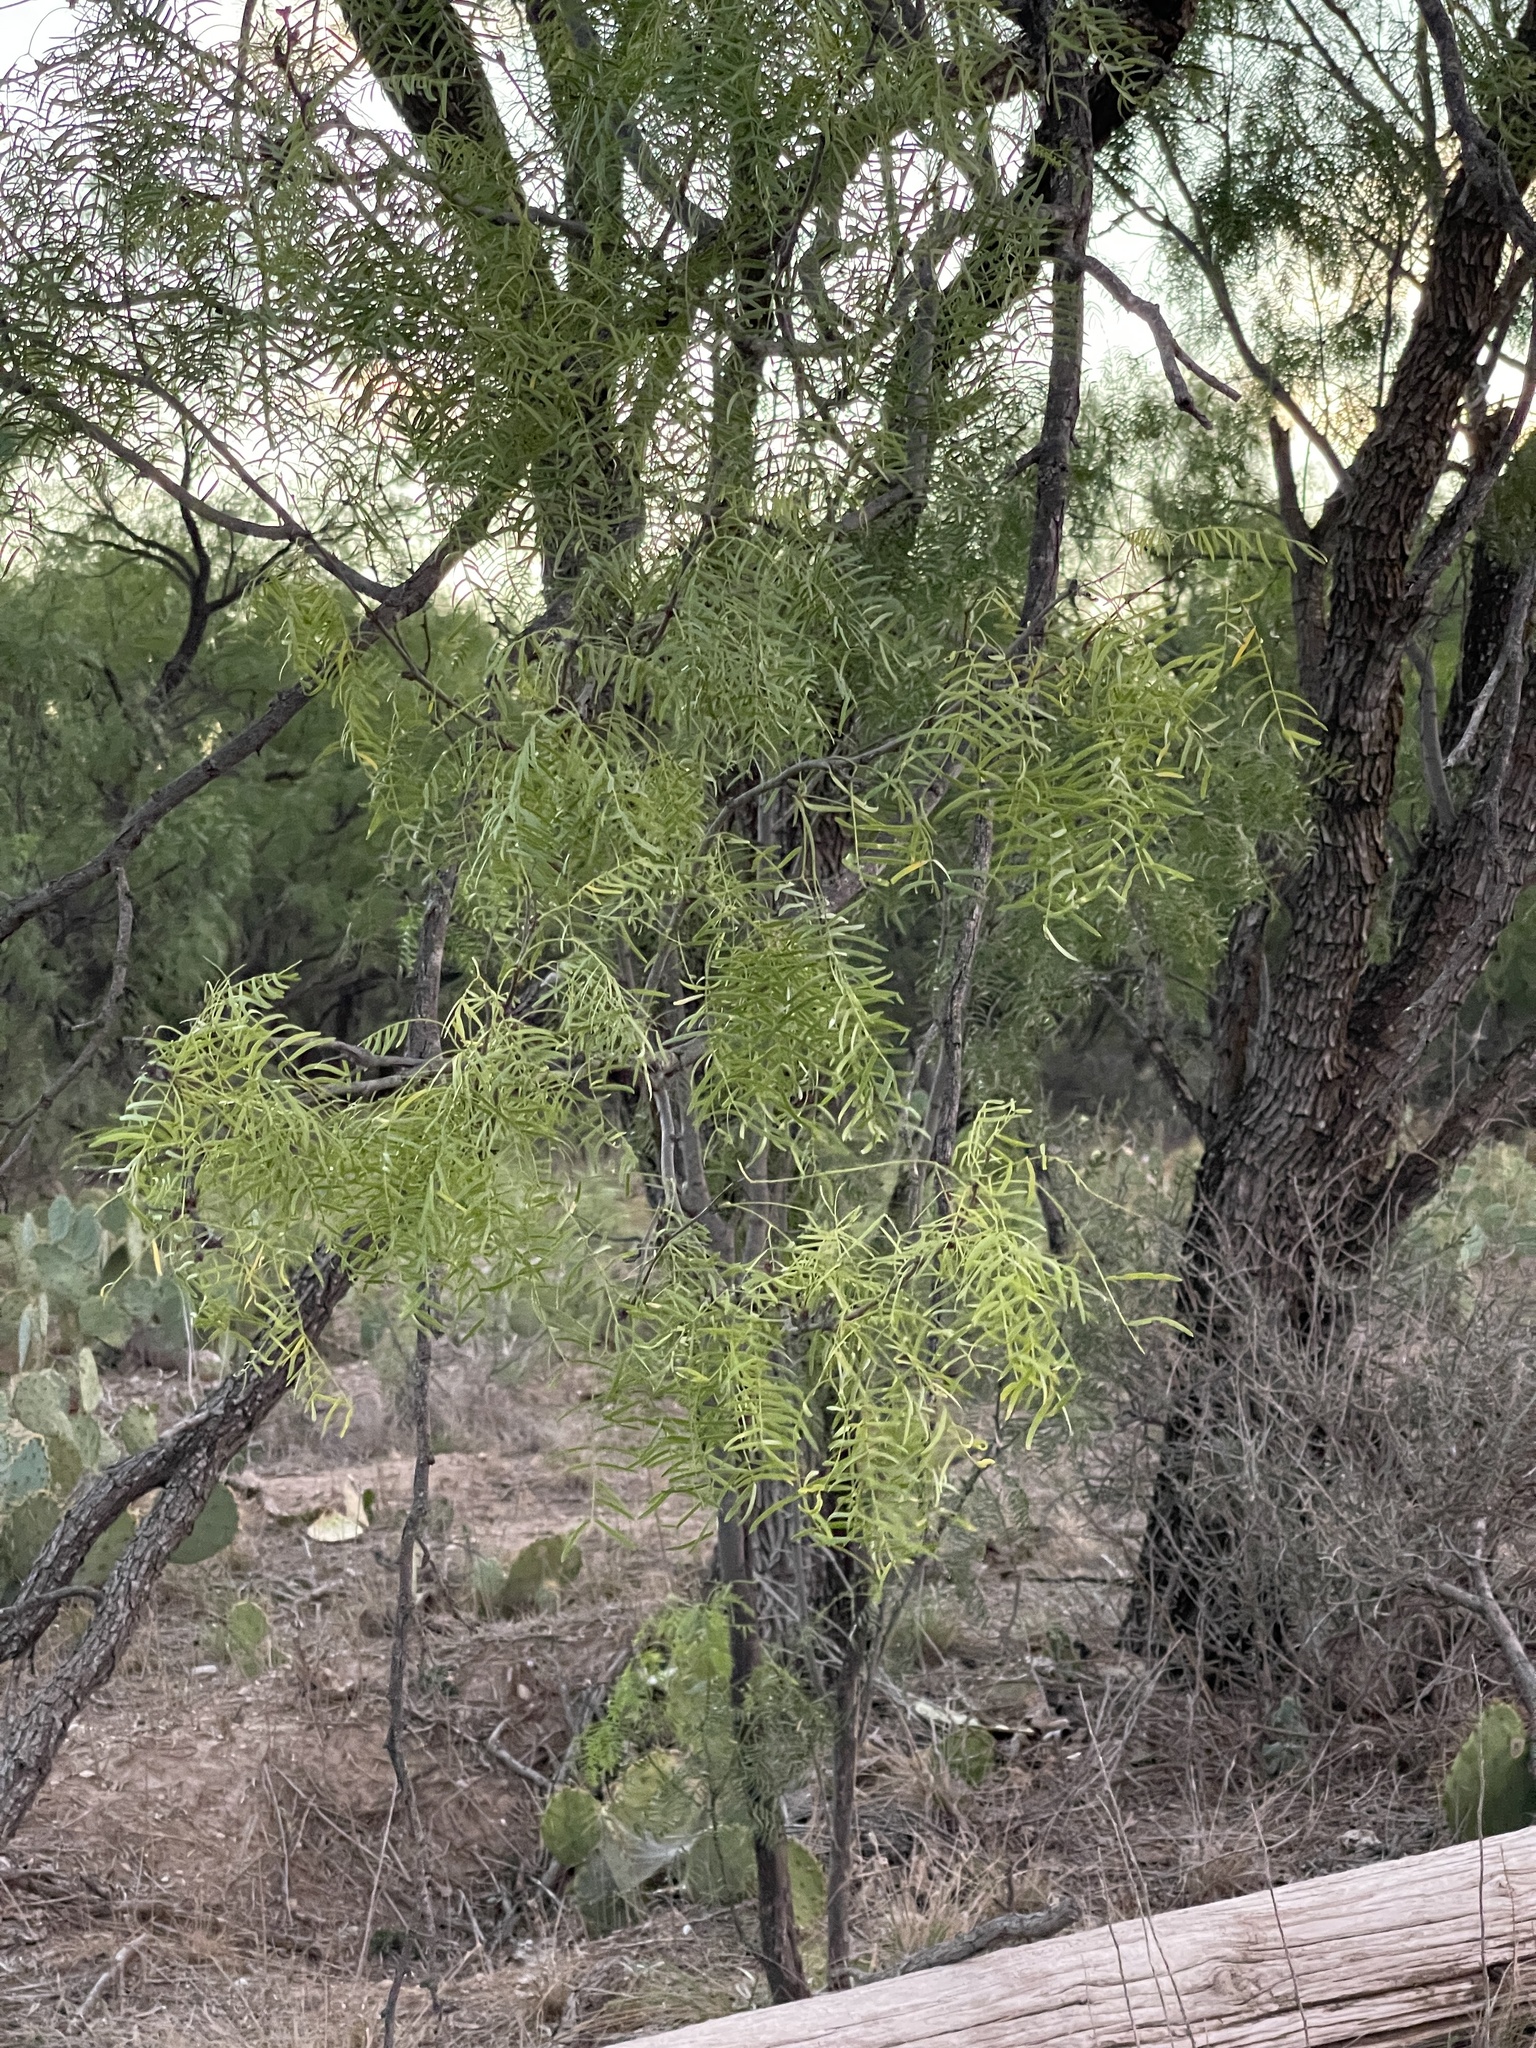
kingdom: Plantae
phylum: Tracheophyta
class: Magnoliopsida
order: Fabales
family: Fabaceae
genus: Prosopis
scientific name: Prosopis glandulosa
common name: Honey mesquite
